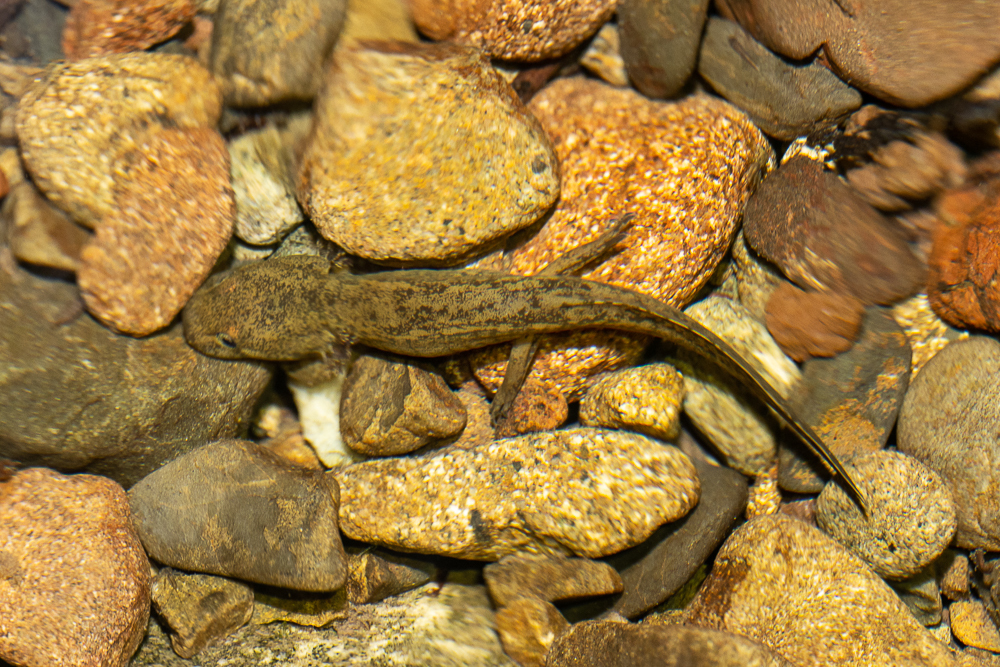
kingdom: Animalia
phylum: Chordata
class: Amphibia
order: Caudata
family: Ambystomatidae
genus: Dicamptodon
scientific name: Dicamptodon ensatus
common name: California giant salamander
